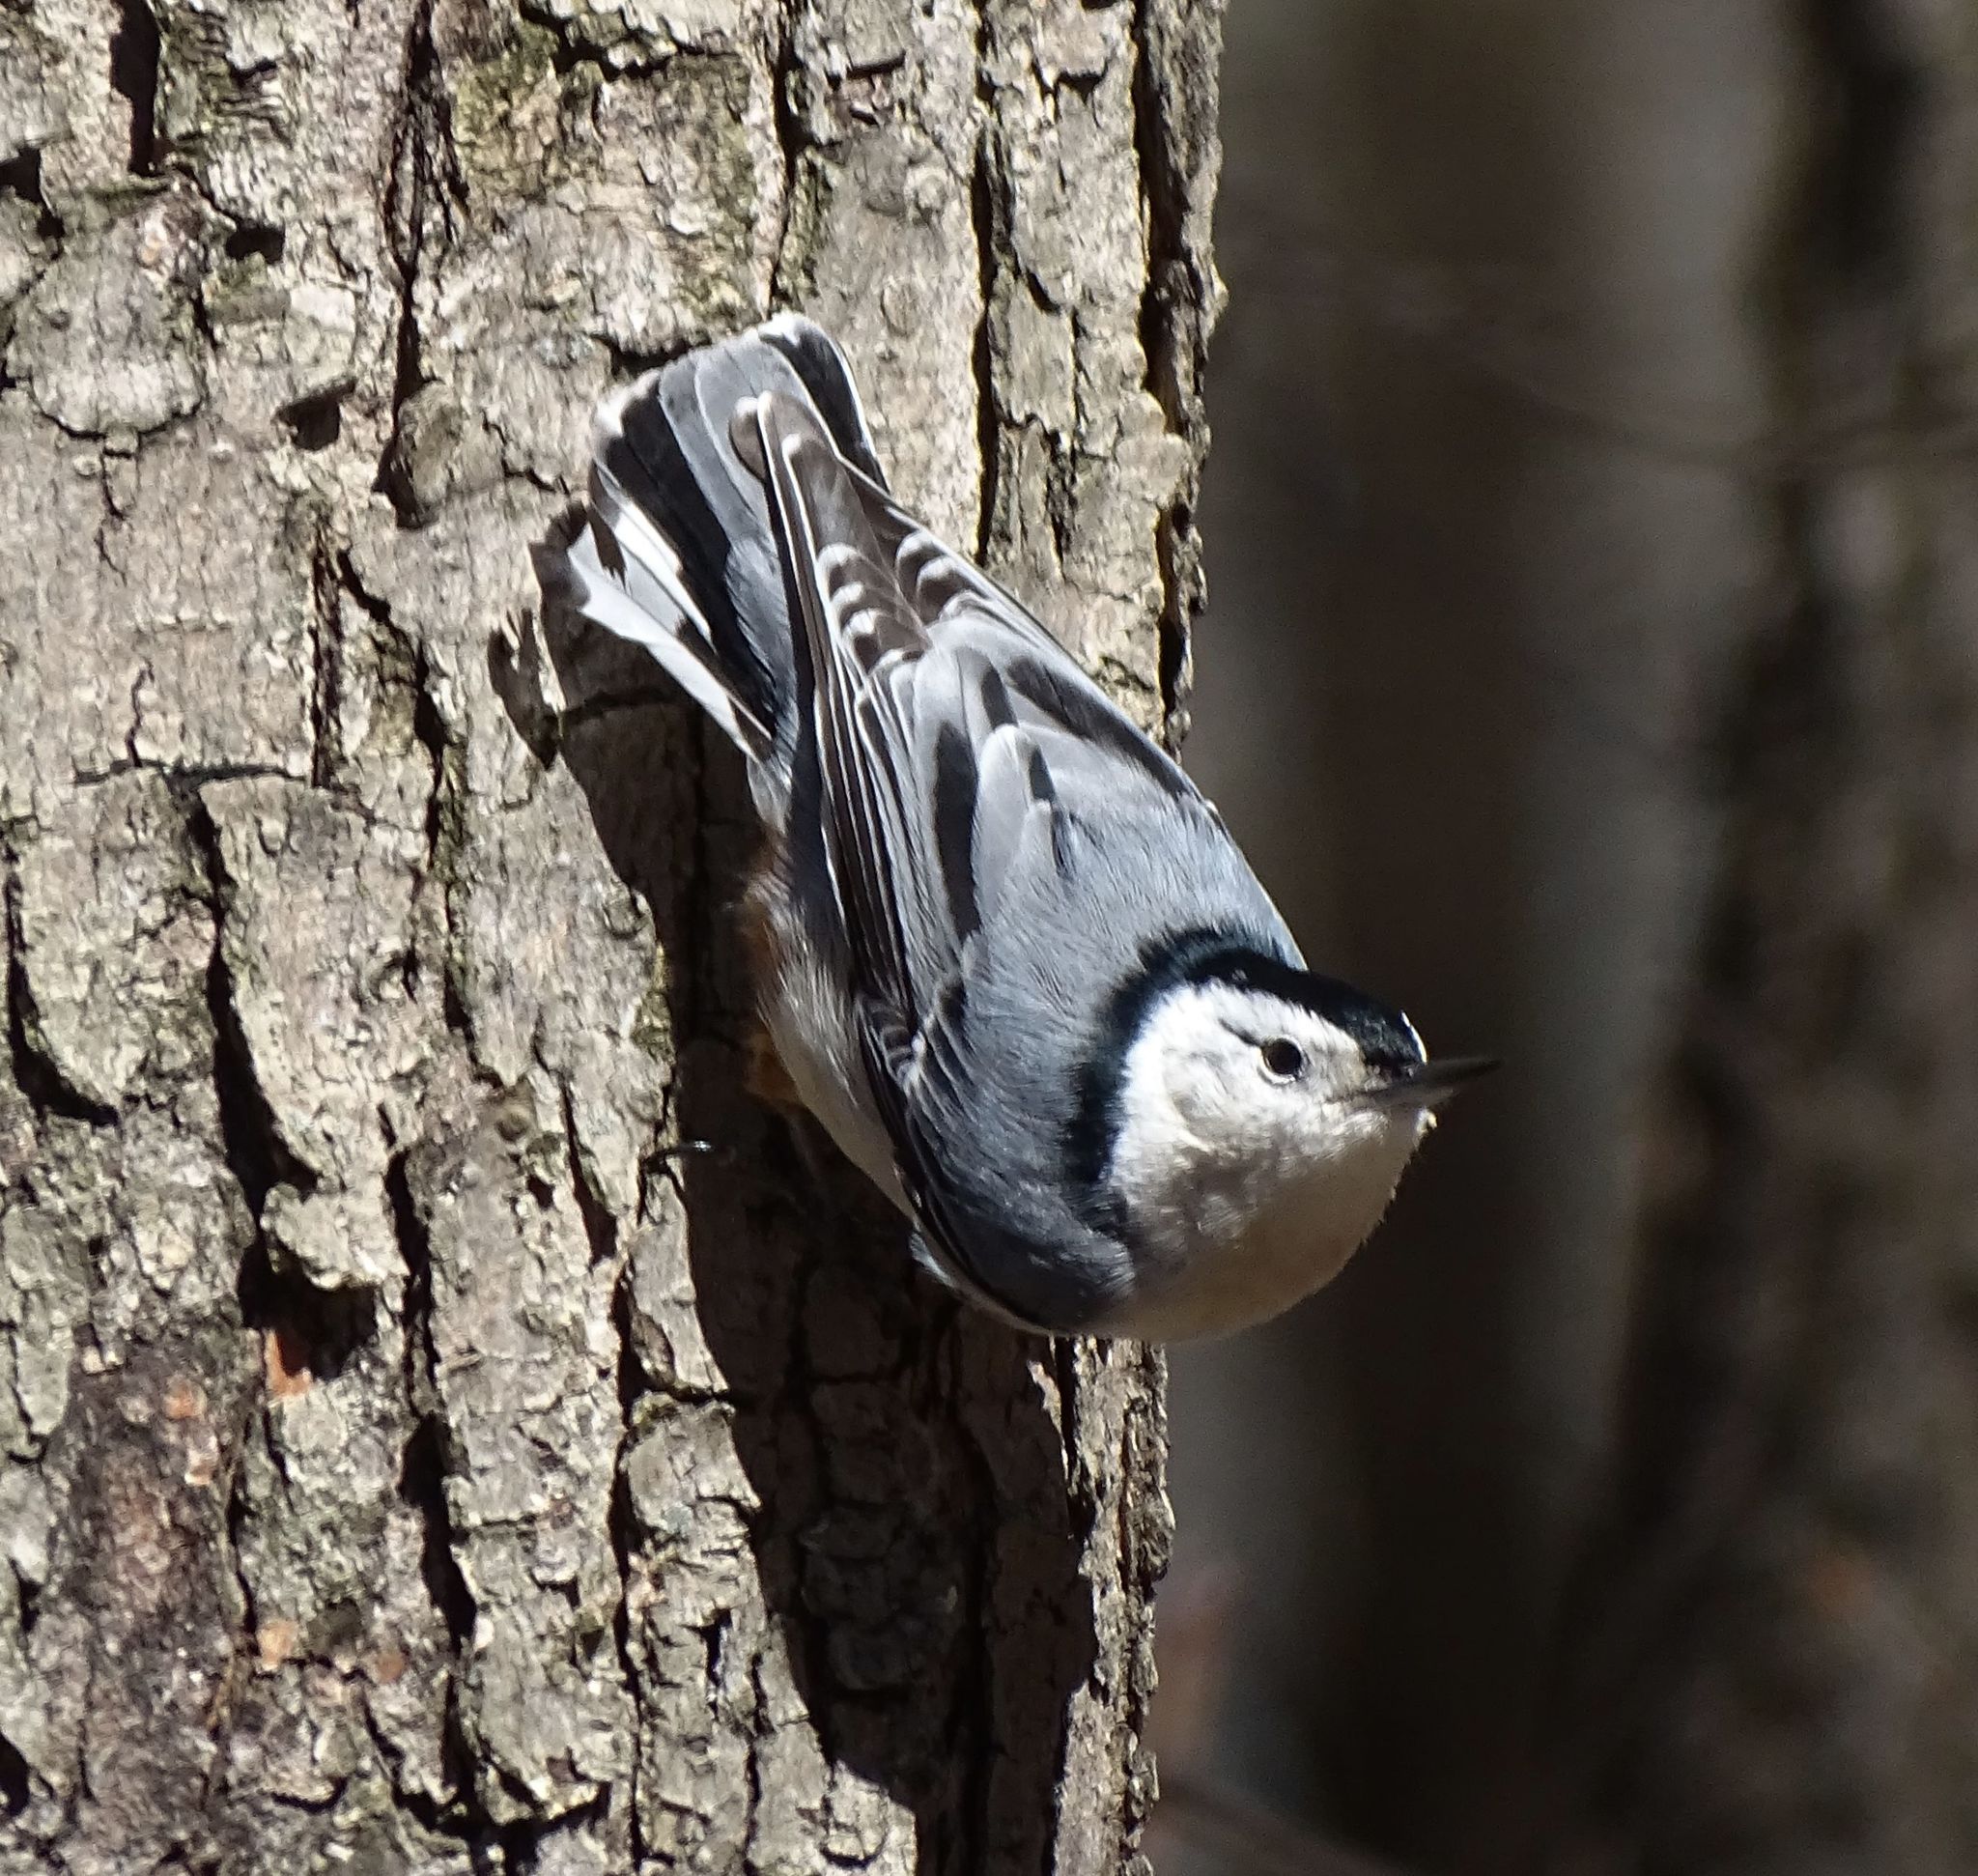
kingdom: Animalia
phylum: Chordata
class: Aves
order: Passeriformes
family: Sittidae
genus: Sitta
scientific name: Sitta carolinensis
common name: White-breasted nuthatch
